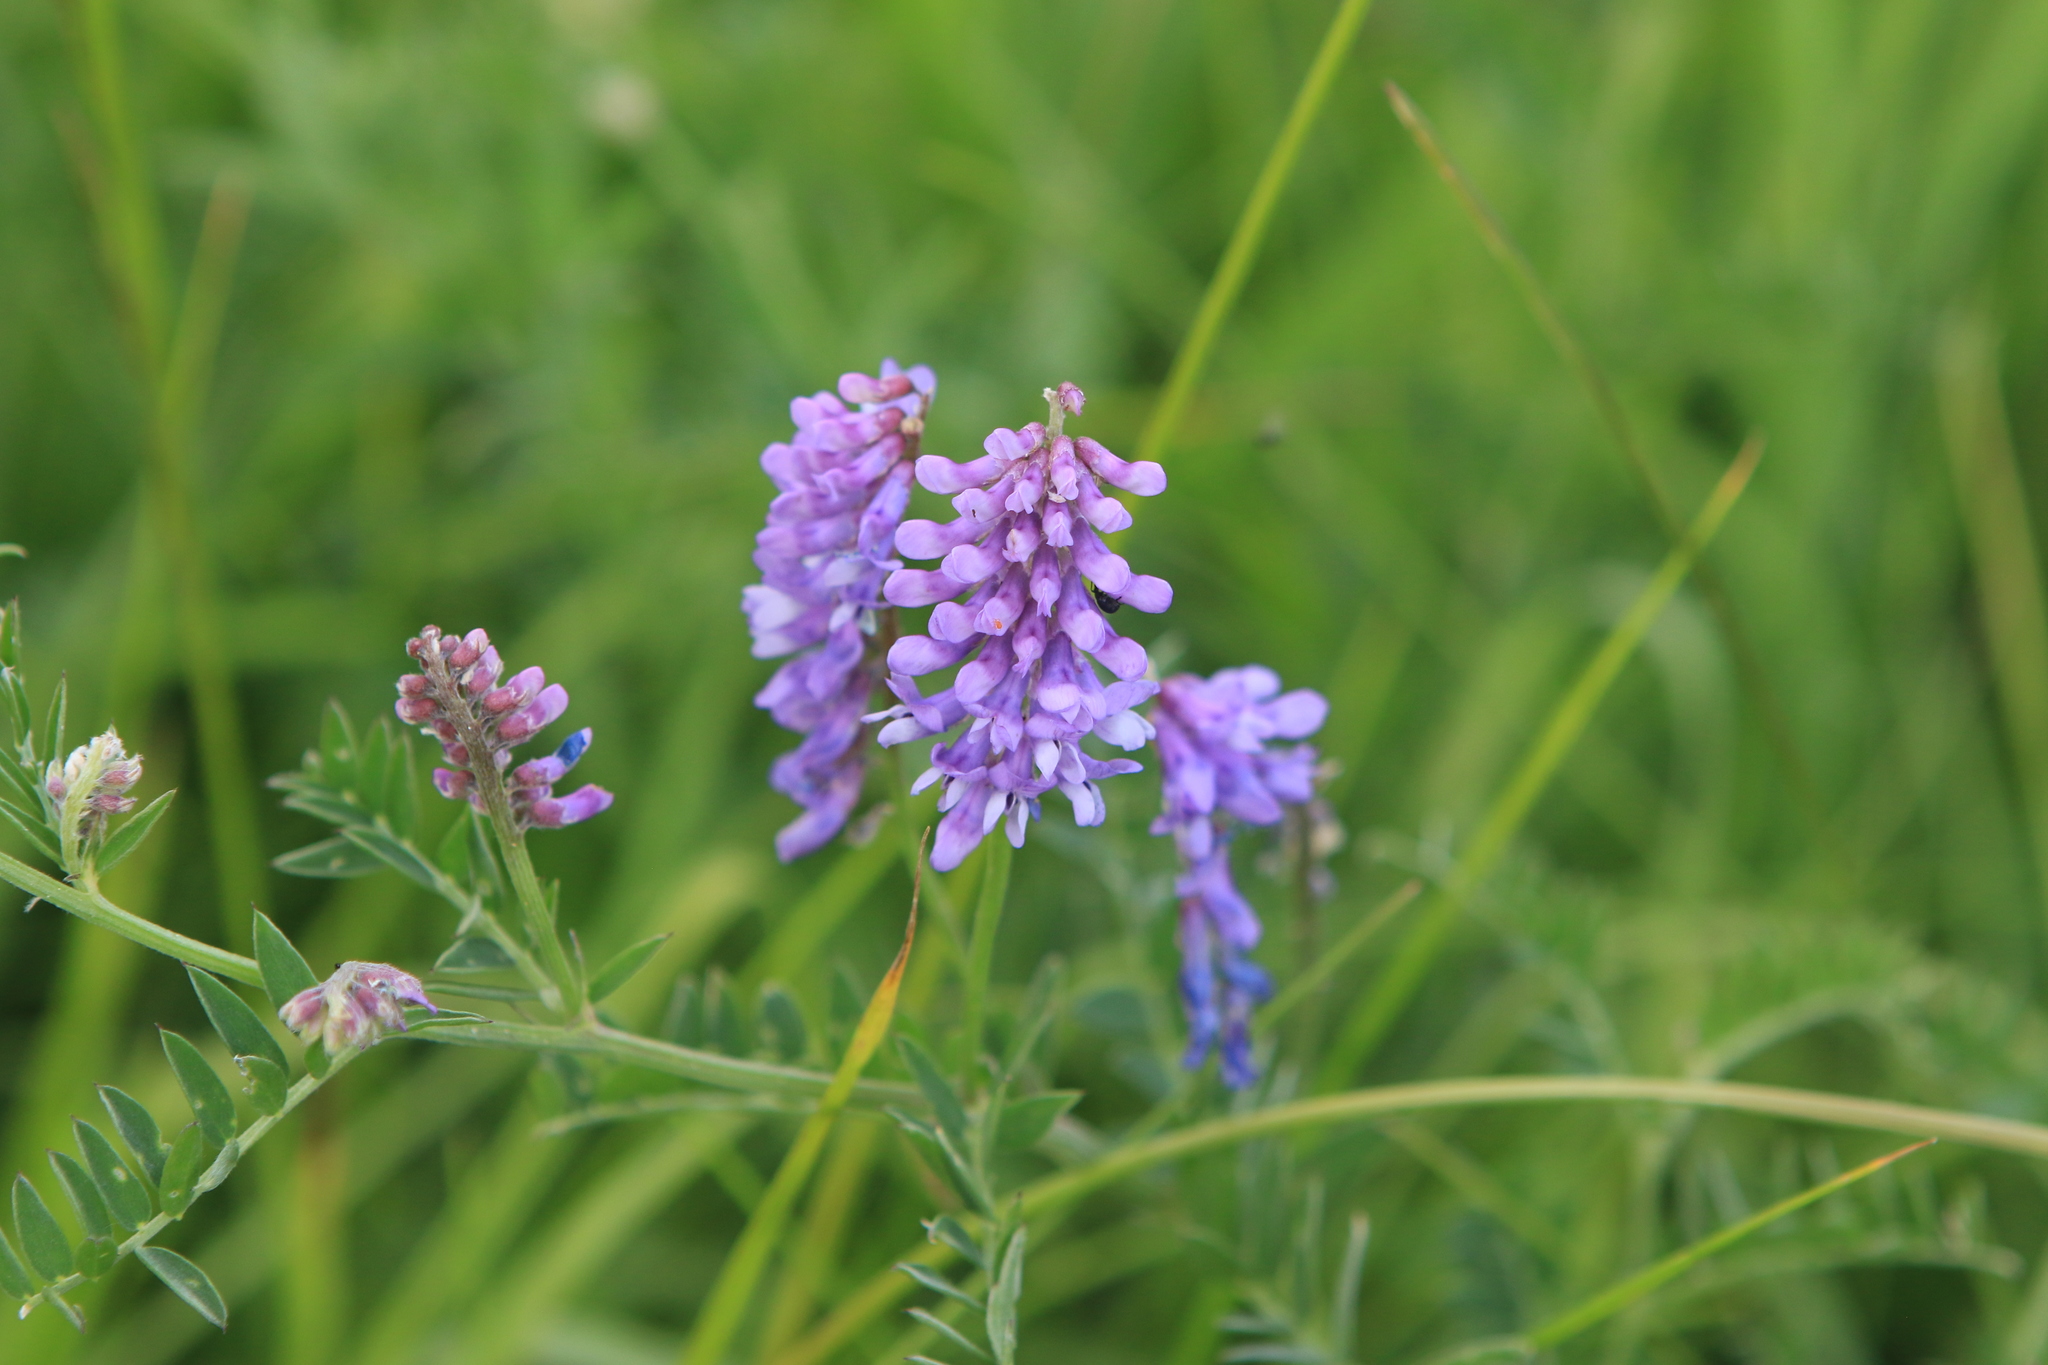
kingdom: Plantae
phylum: Tracheophyta
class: Magnoliopsida
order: Fabales
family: Fabaceae
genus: Vicia
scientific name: Vicia cracca
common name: Bird vetch
